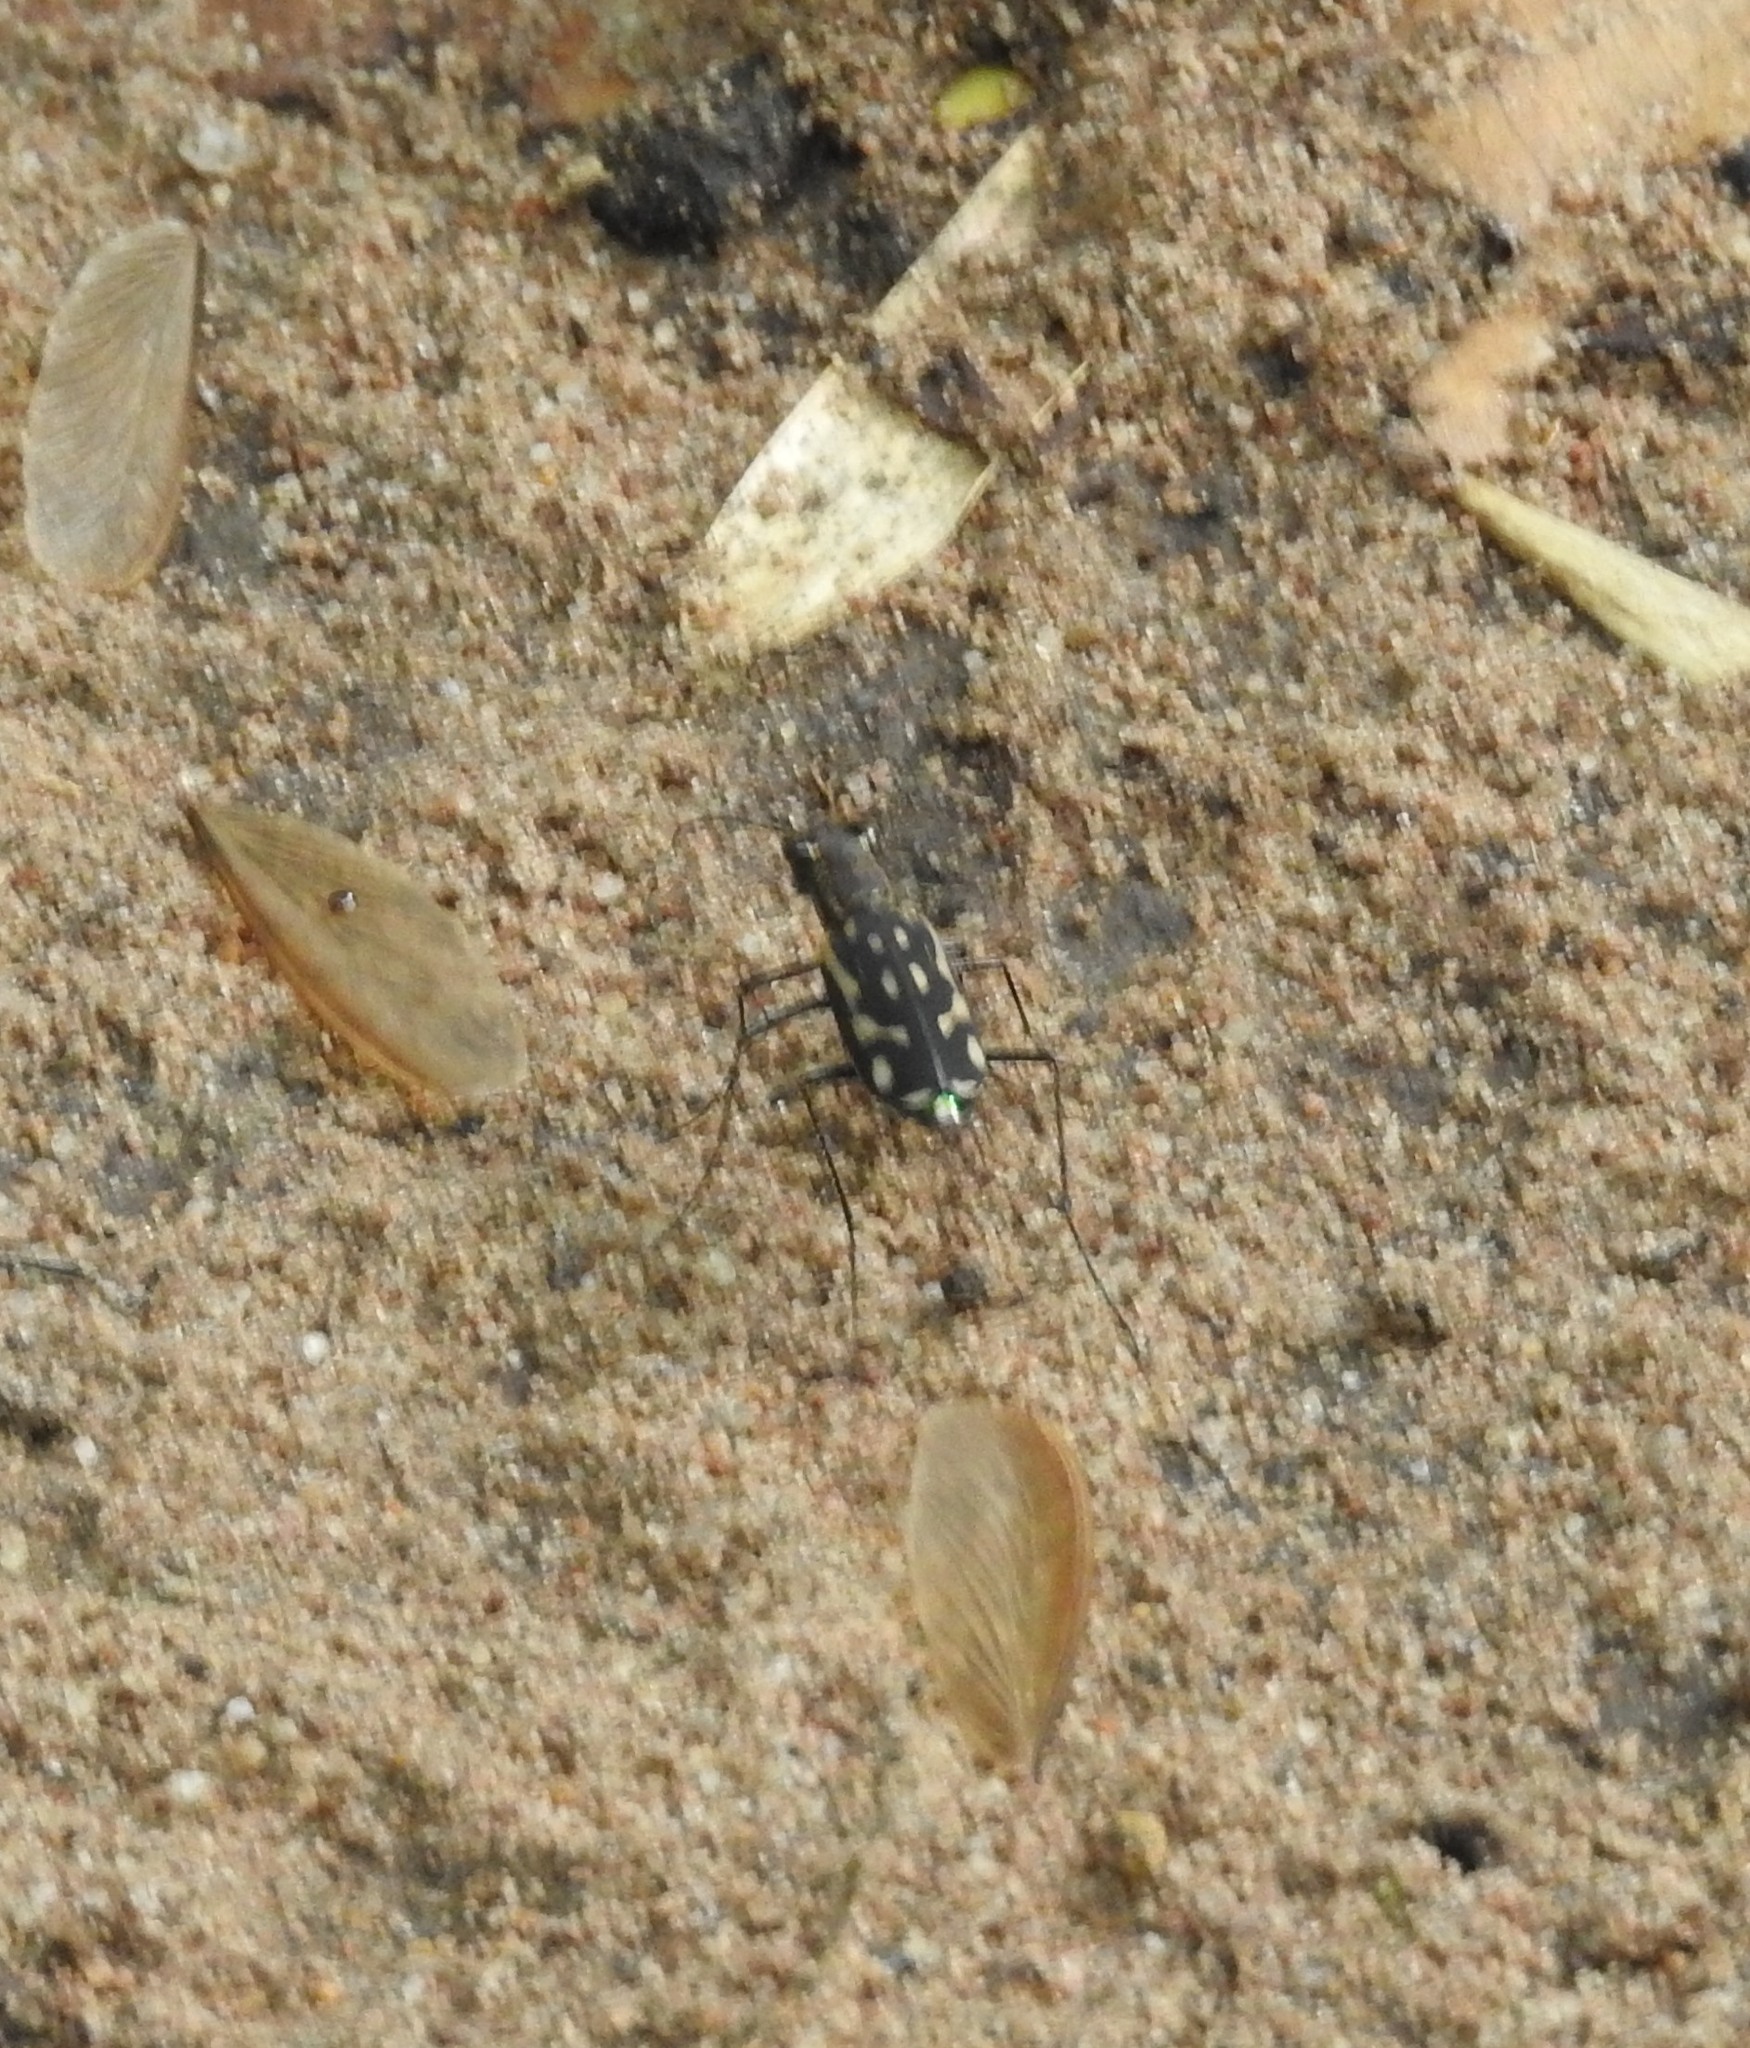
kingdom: Animalia
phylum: Arthropoda
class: Insecta
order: Coleoptera
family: Carabidae
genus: Lophyra
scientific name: Lophyra striolata
